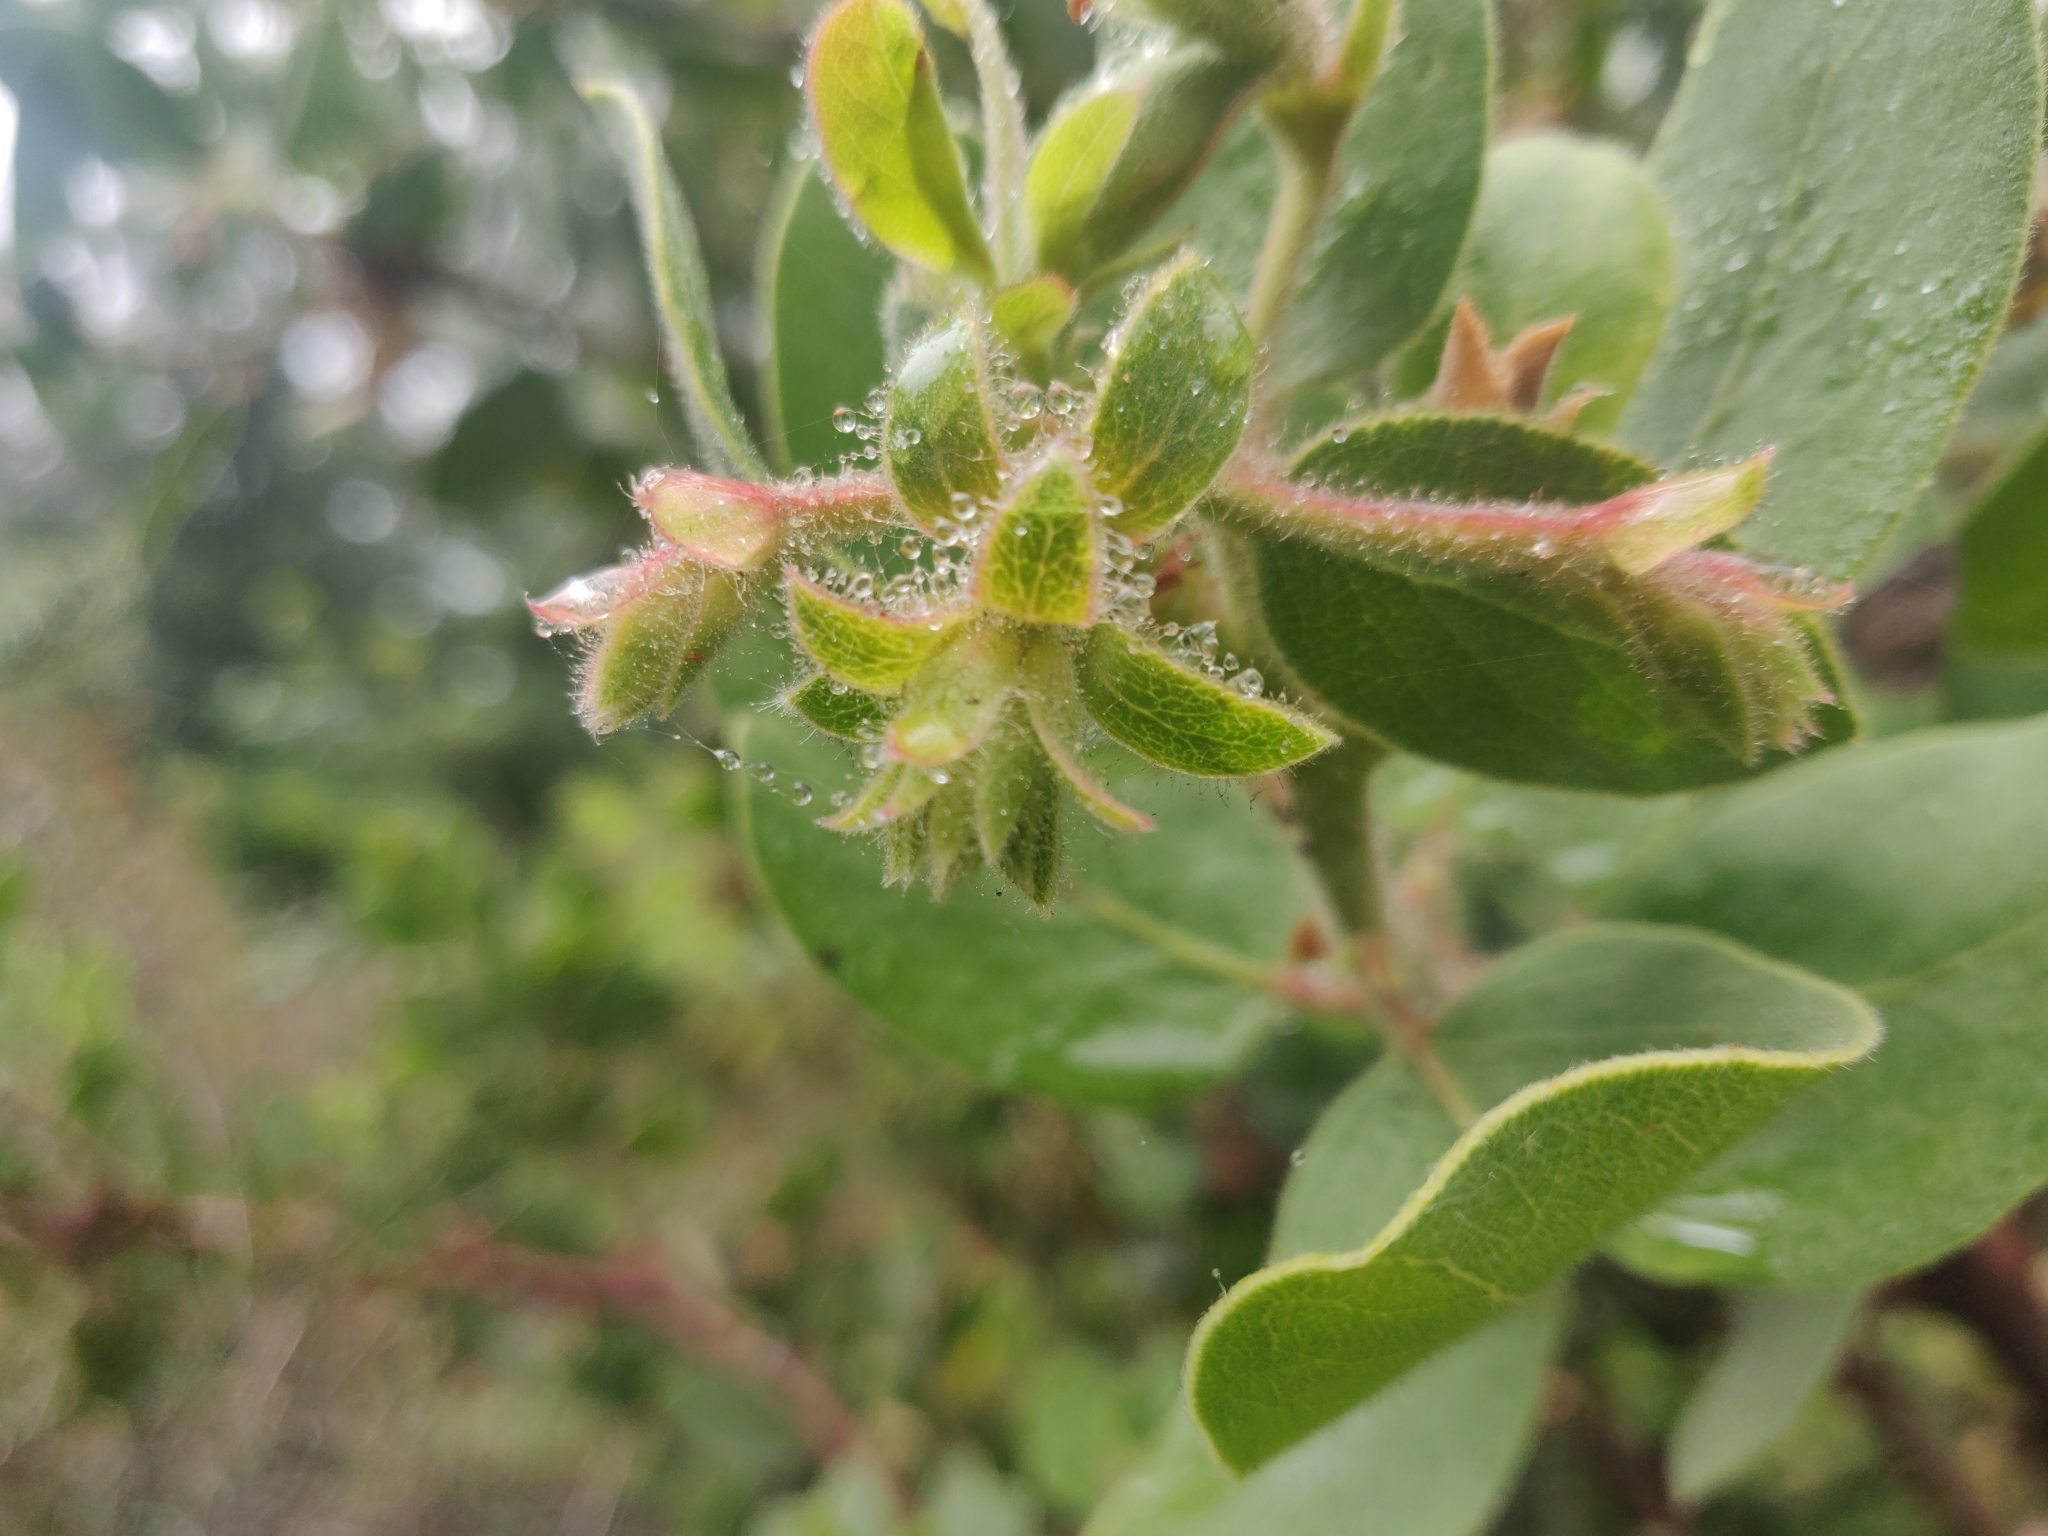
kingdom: Plantae
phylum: Tracheophyta
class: Magnoliopsida
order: Ericales
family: Ericaceae
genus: Arctostaphylos
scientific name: Arctostaphylos glandulosa
